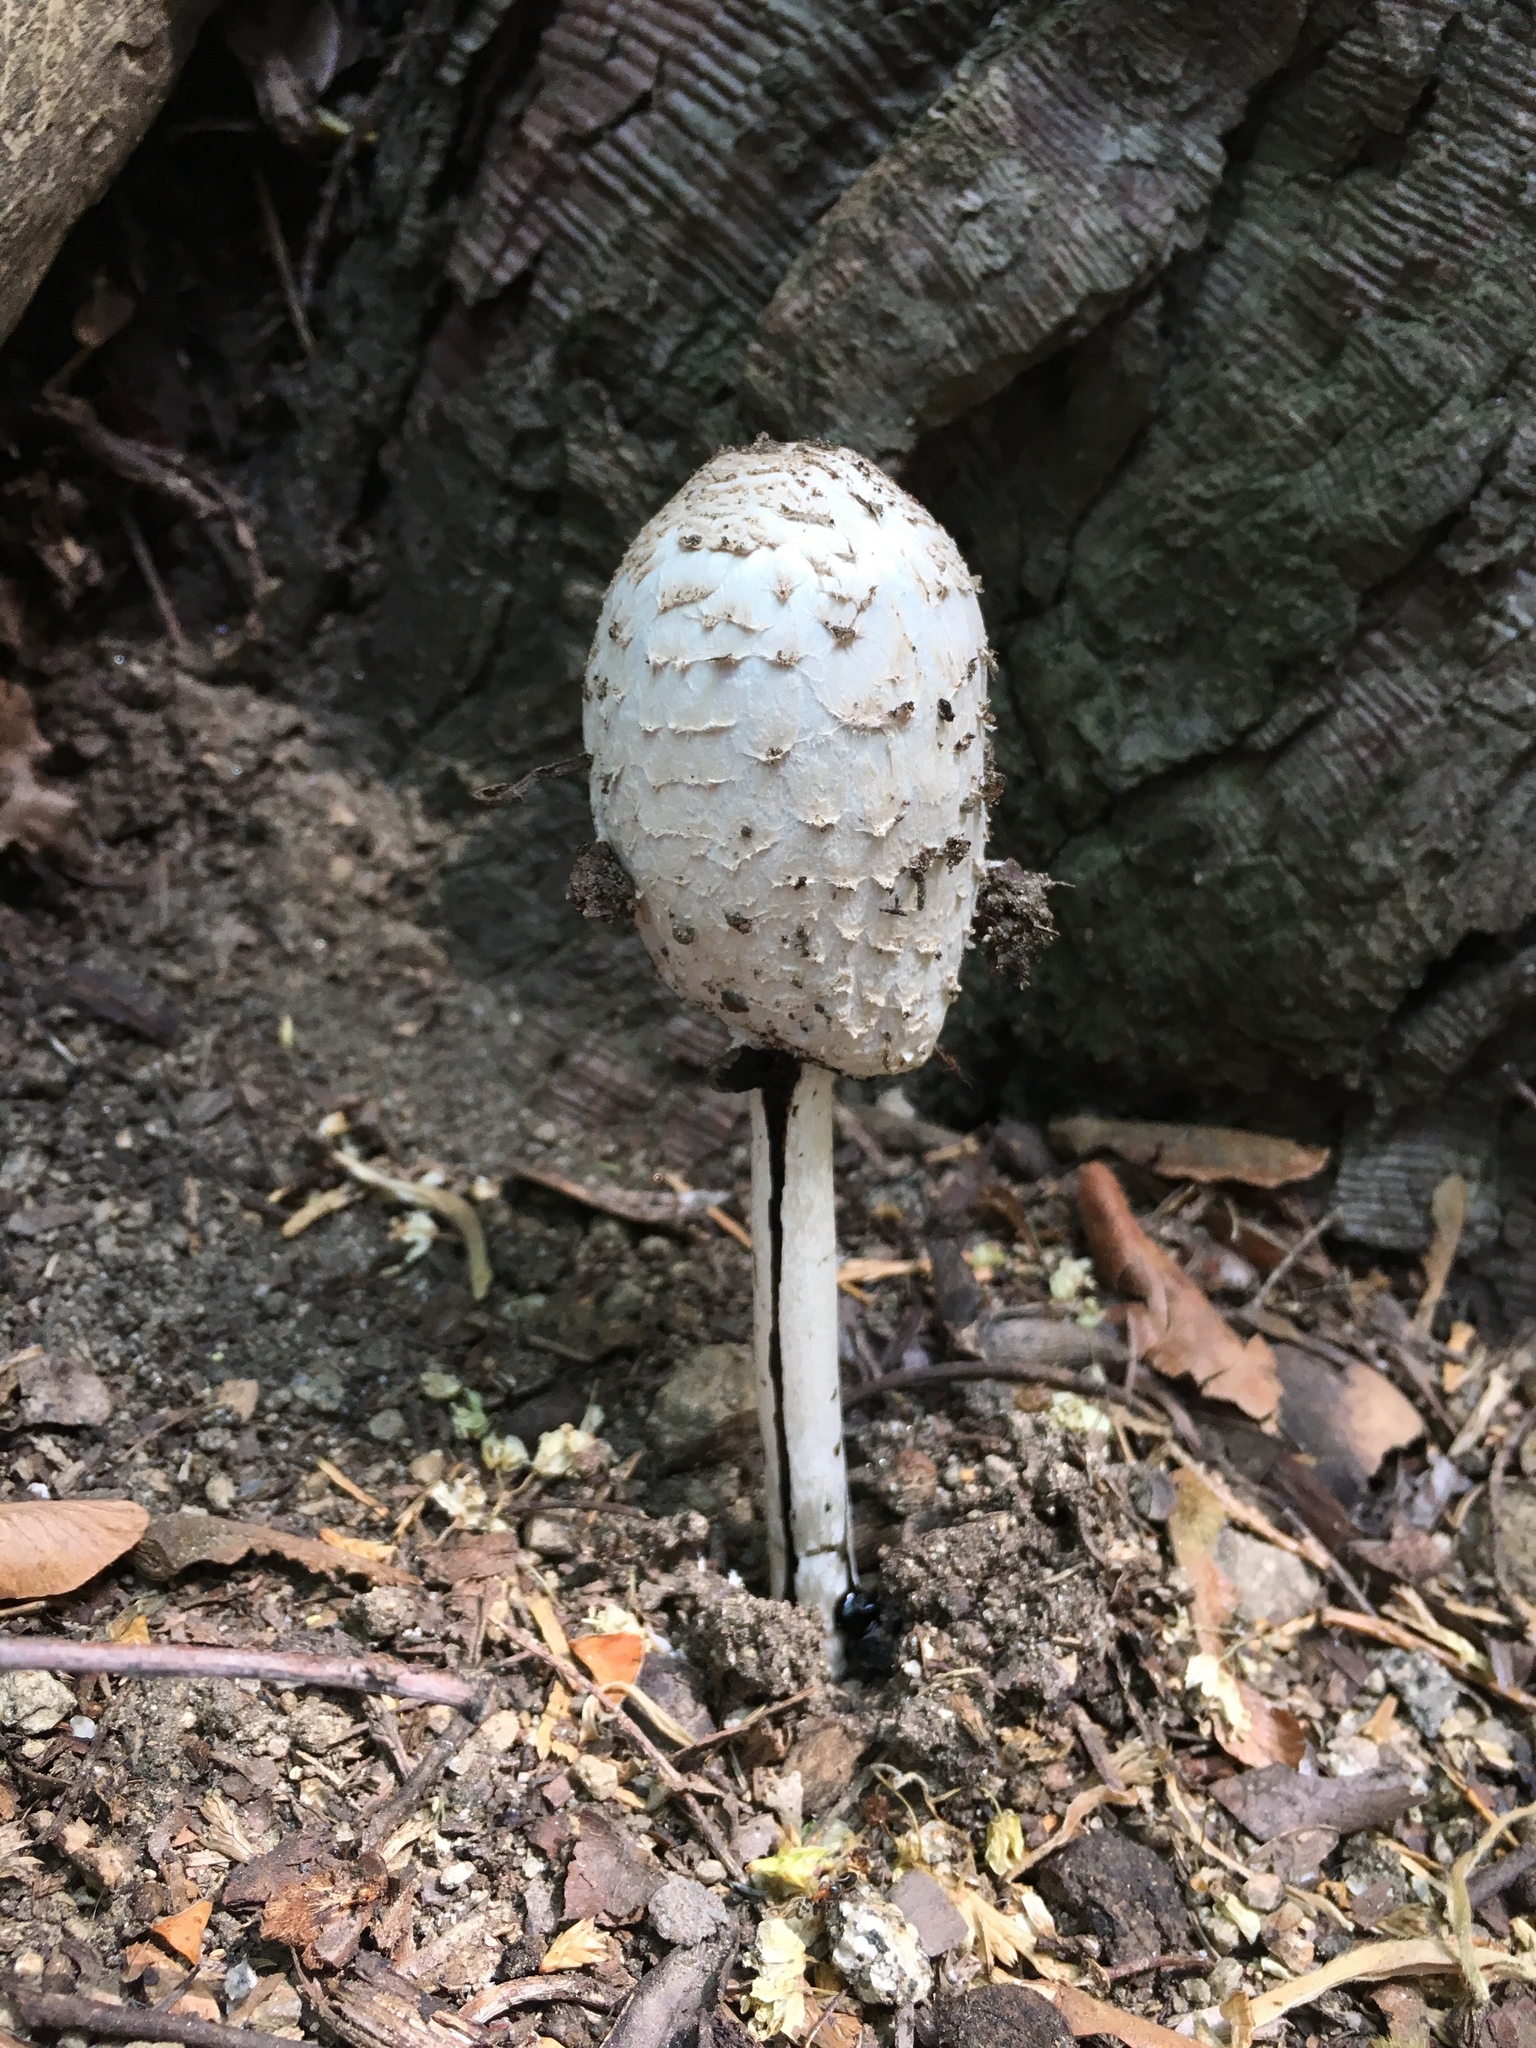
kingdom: Fungi
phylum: Basidiomycota
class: Agaricomycetes
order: Agaricales
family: Agaricaceae
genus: Coprinus
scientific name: Coprinus comatus
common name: Lawyer's wig
